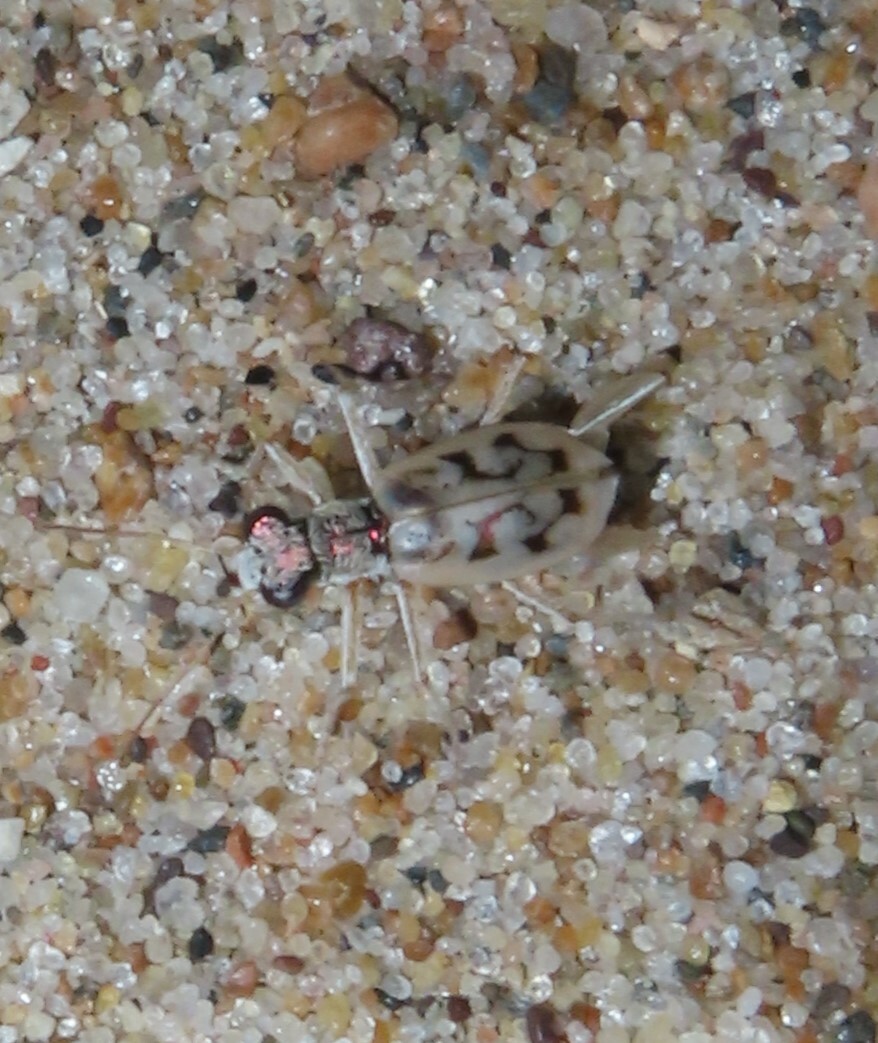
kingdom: Animalia
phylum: Arthropoda
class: Insecta
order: Coleoptera
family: Carabidae
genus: Ellipsoptera
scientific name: Ellipsoptera lepida
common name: Ghost tiger beetle
